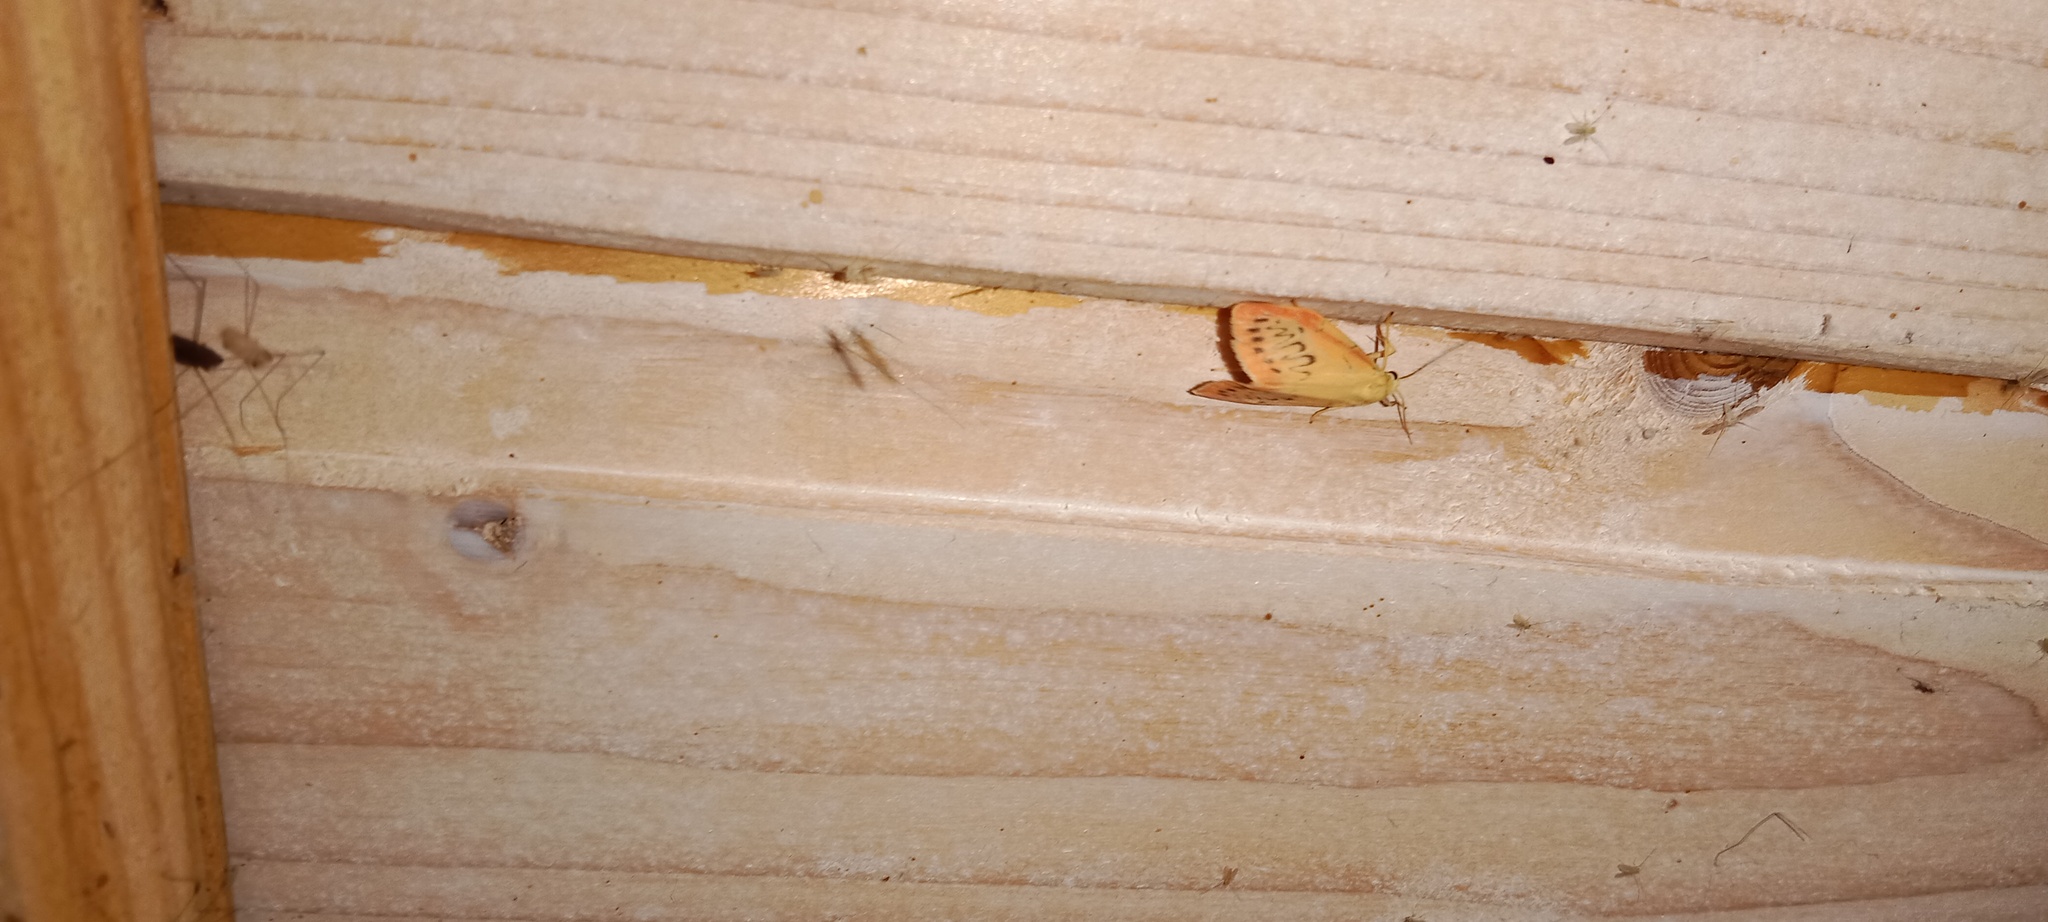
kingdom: Animalia
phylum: Arthropoda
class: Insecta
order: Lepidoptera
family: Erebidae
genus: Miltochrista
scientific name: Miltochrista miniata
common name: Rosy footman
